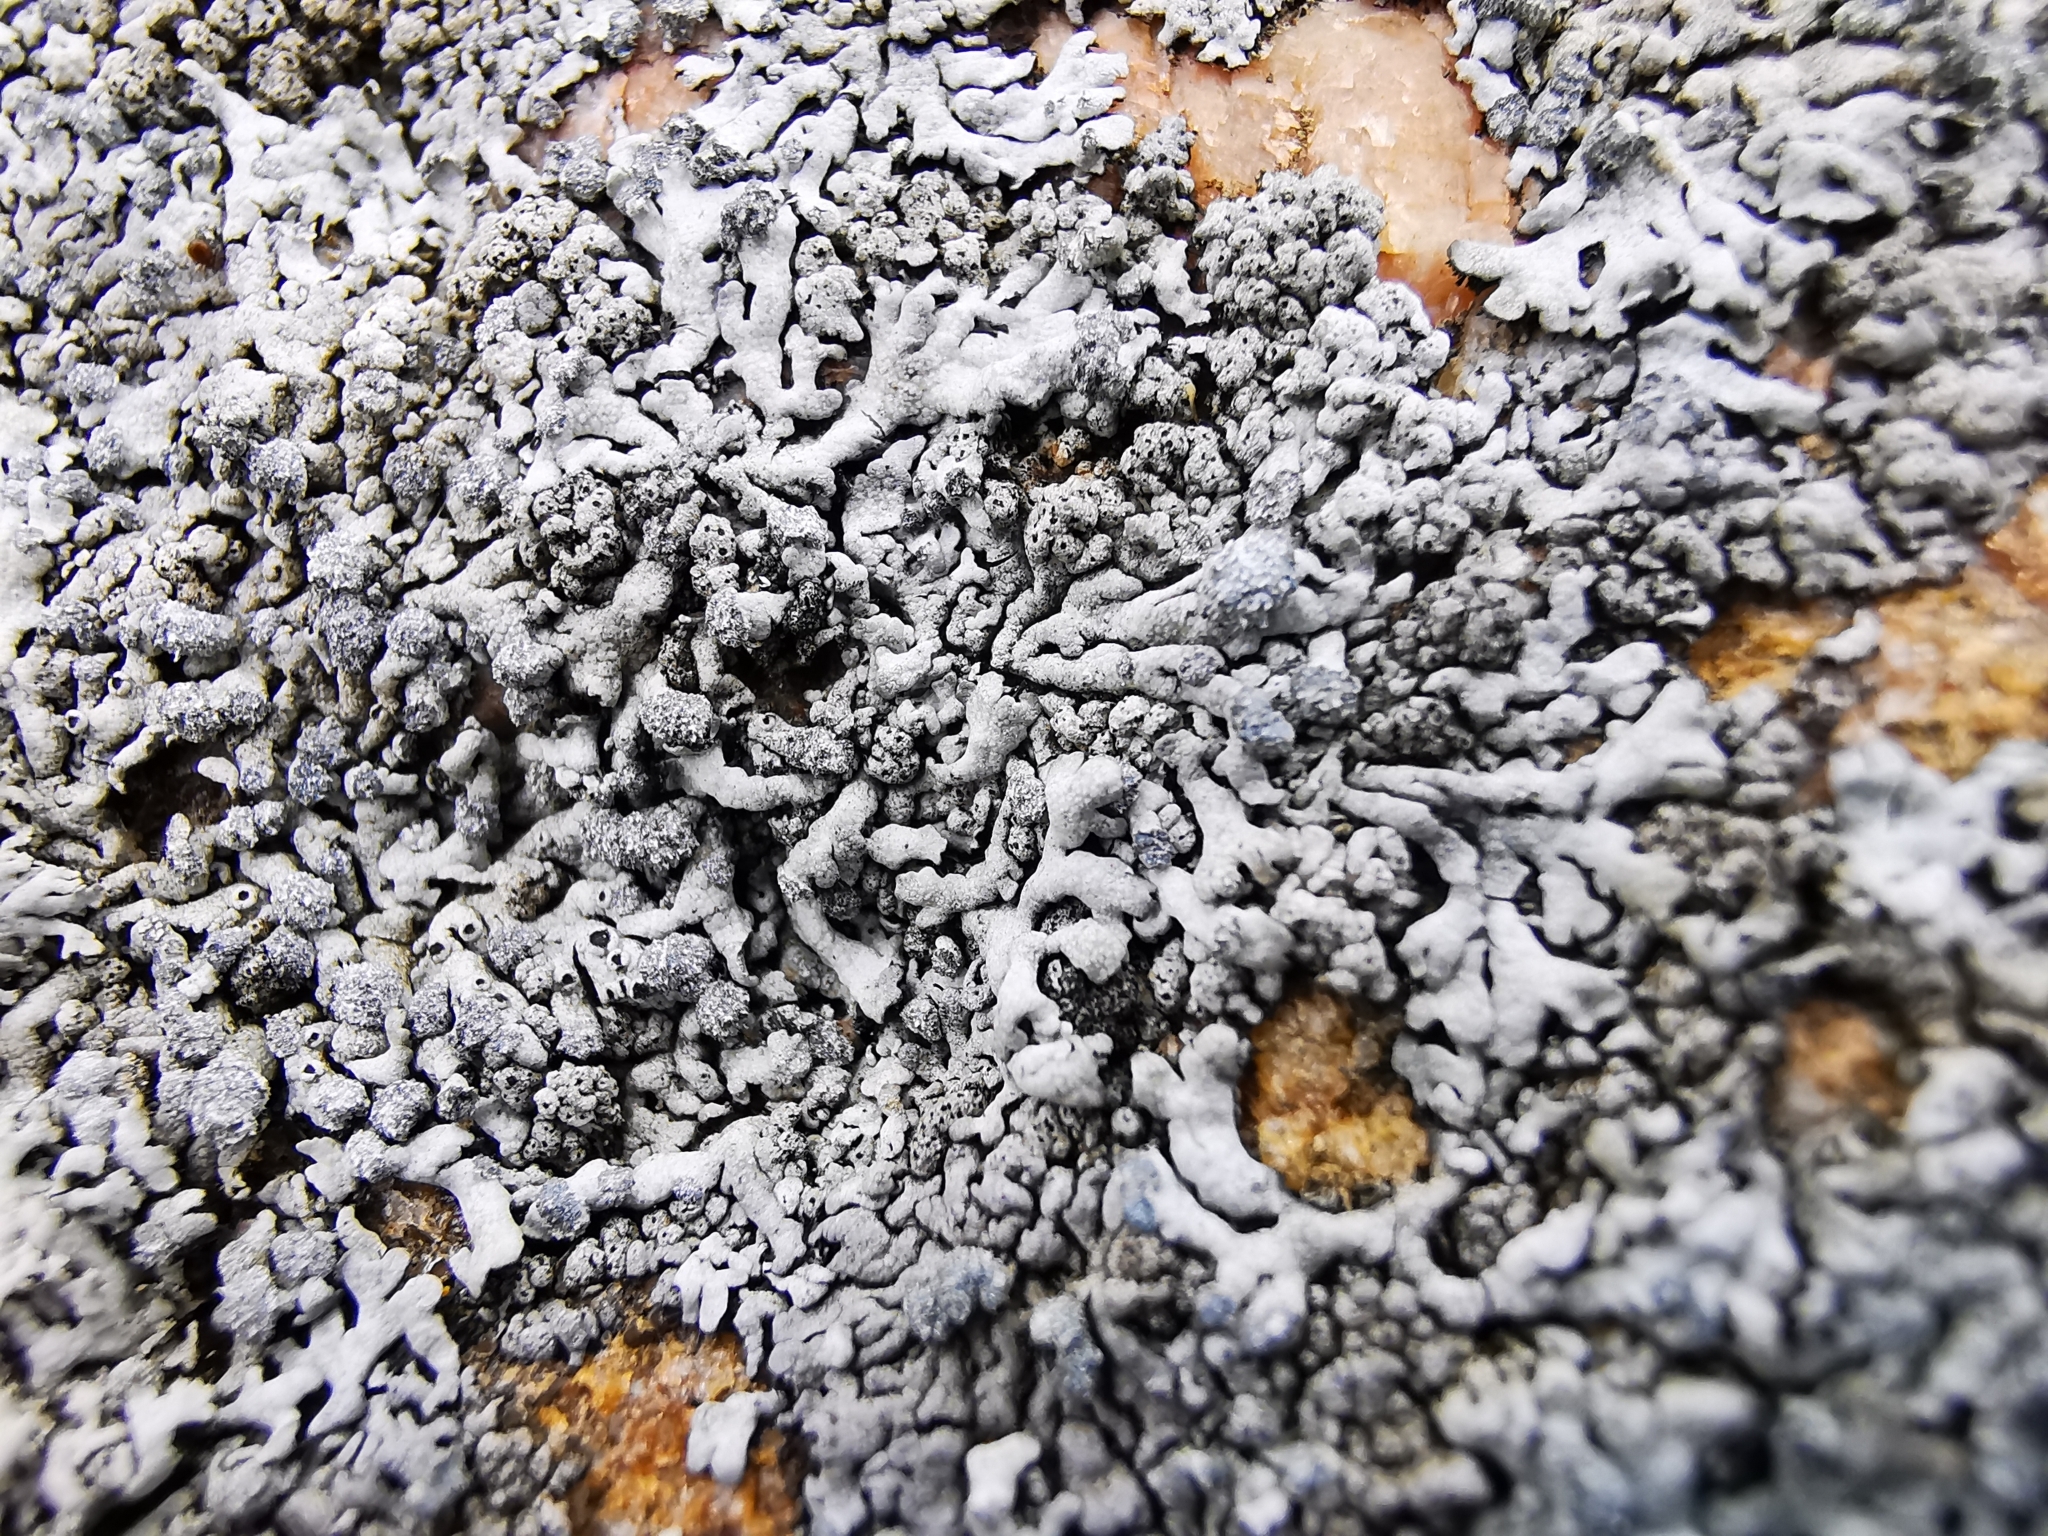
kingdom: Fungi
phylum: Ascomycota
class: Lecanoromycetes
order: Caliciales
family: Physciaceae
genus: Physcia
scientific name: Physcia caesia
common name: Blue-gray rosette lichen
